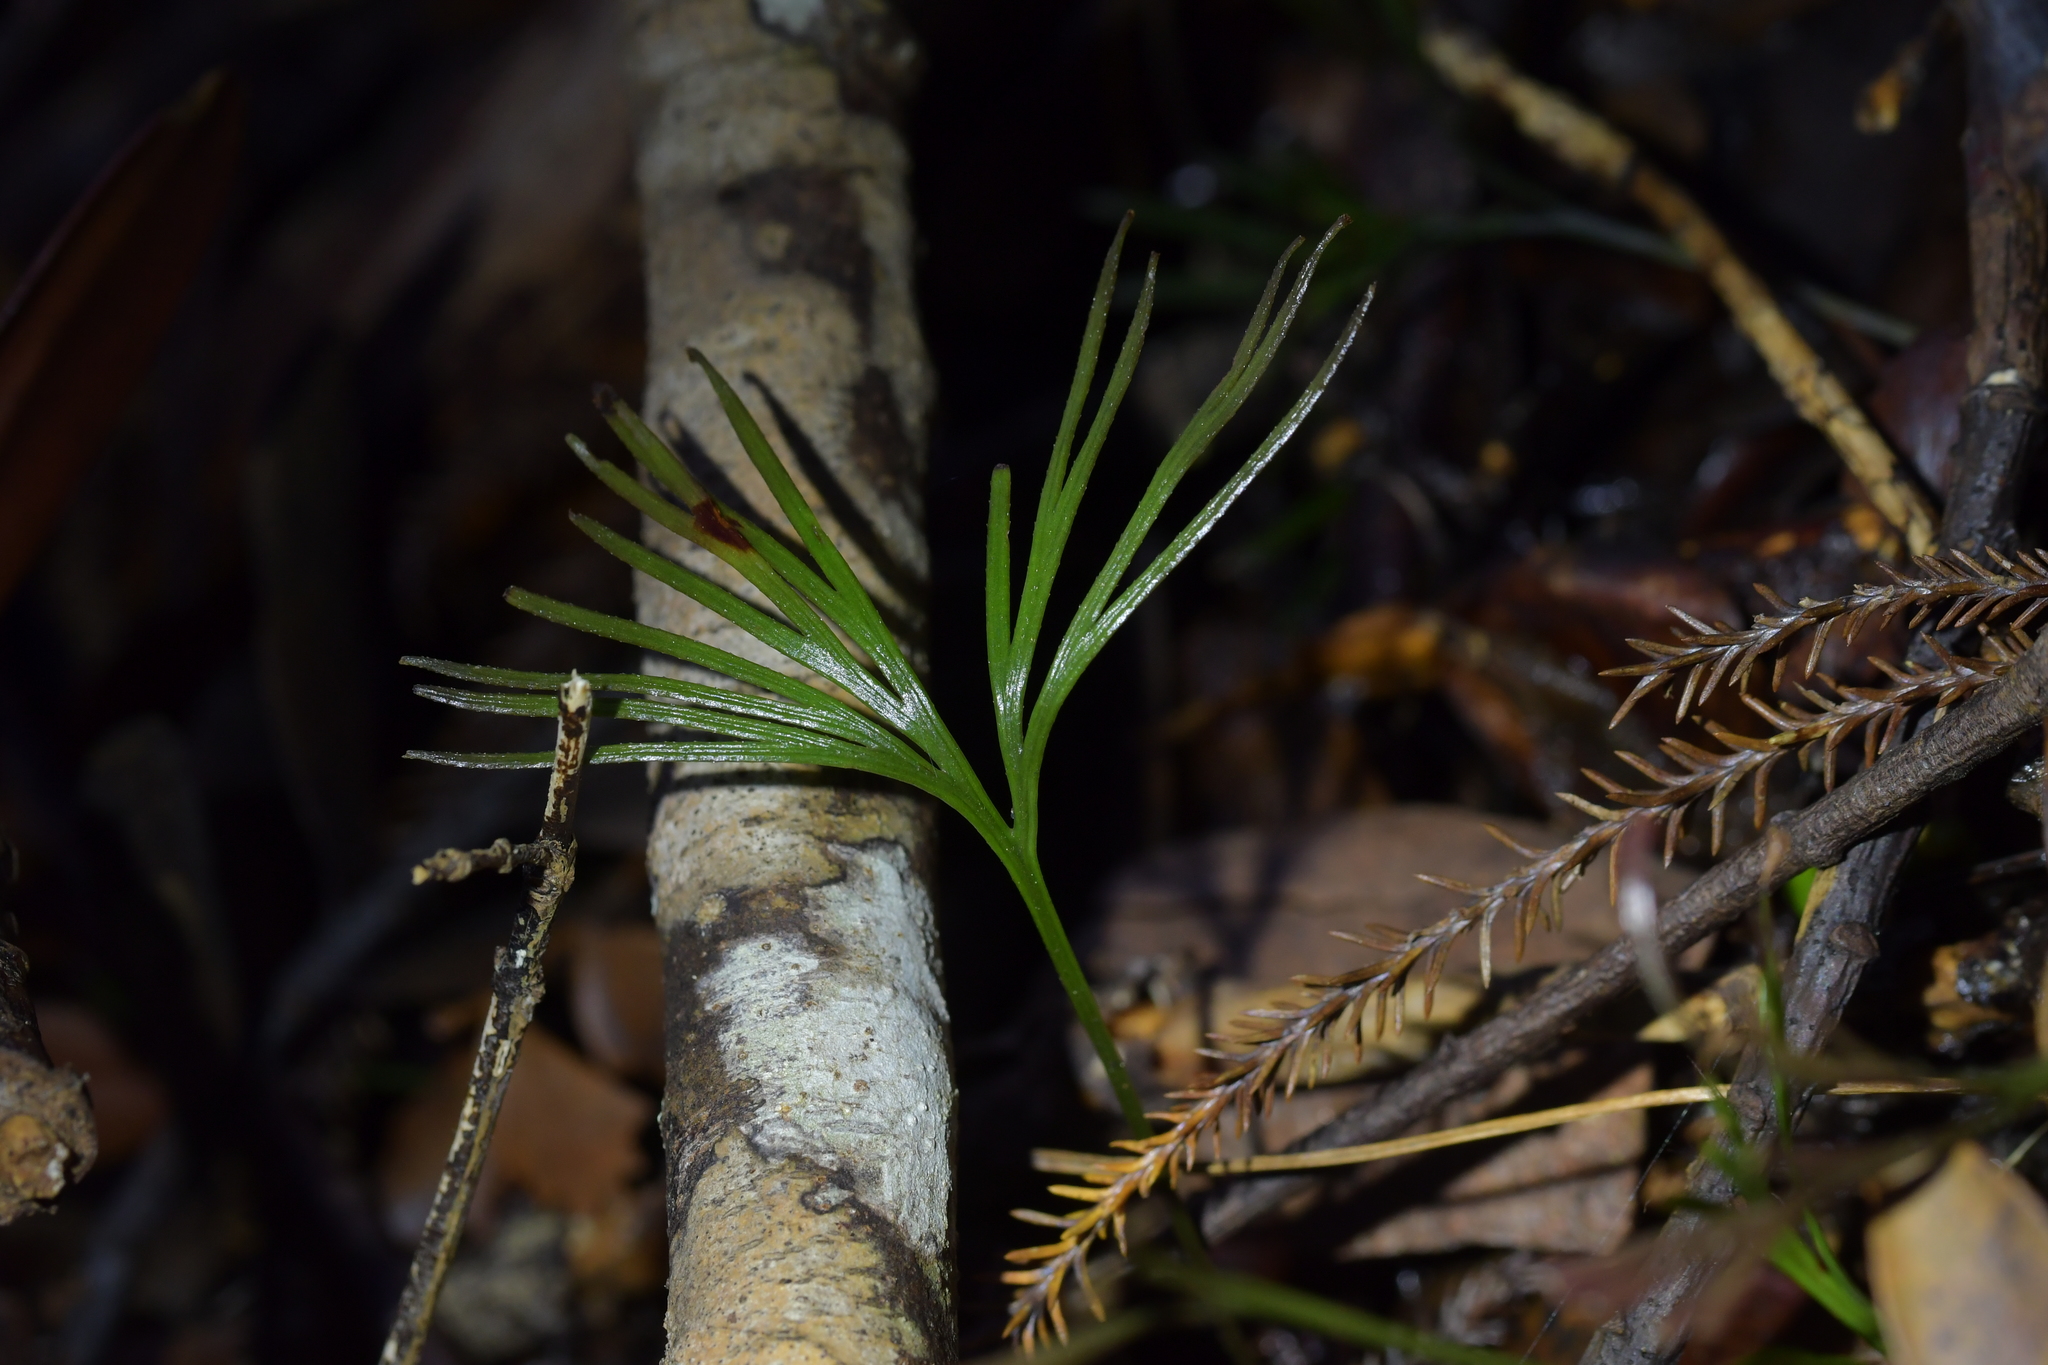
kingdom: Plantae
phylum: Tracheophyta
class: Polypodiopsida
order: Schizaeales
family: Schizaeaceae
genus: Schizaea
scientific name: Schizaea dichotoma
